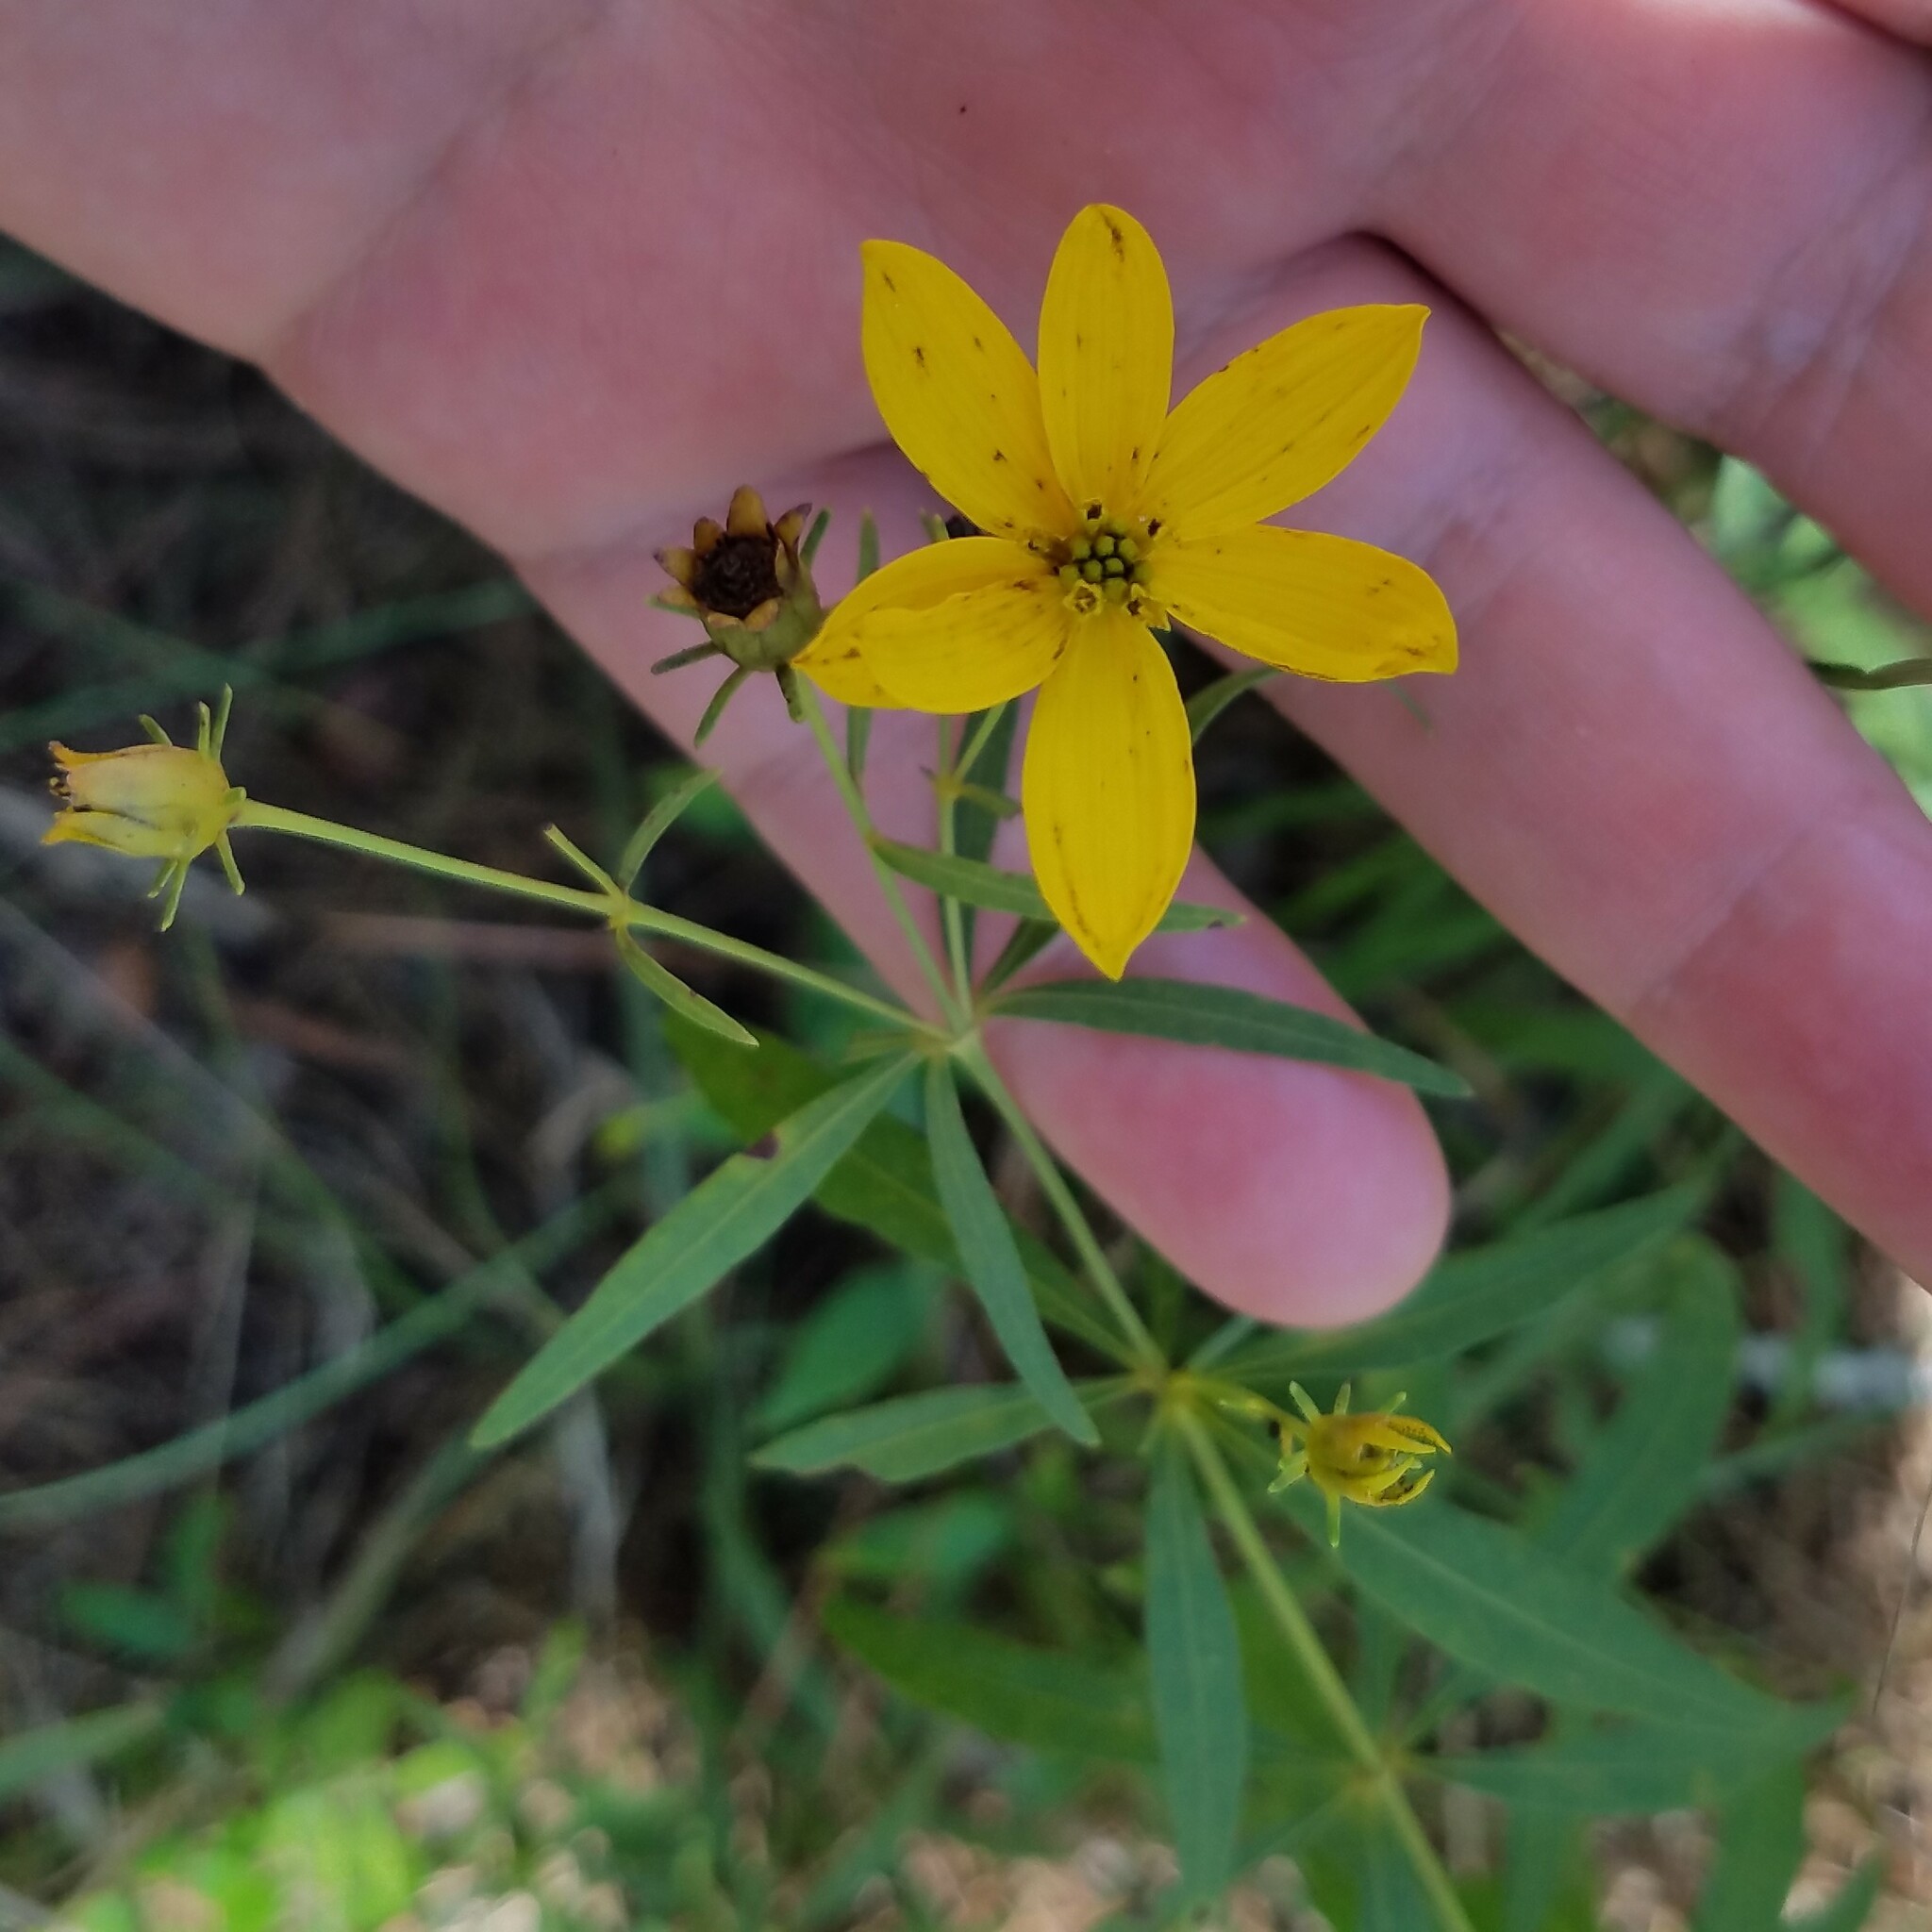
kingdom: Plantae
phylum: Tracheophyta
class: Magnoliopsida
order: Asterales
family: Asteraceae
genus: Coreopsis
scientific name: Coreopsis major
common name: Forest tickseed
